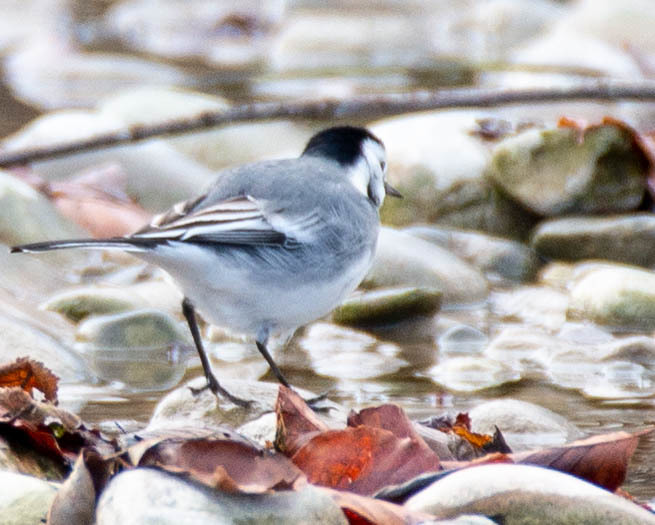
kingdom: Animalia
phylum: Chordata
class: Aves
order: Passeriformes
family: Motacillidae
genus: Motacilla
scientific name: Motacilla alba
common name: White wagtail
